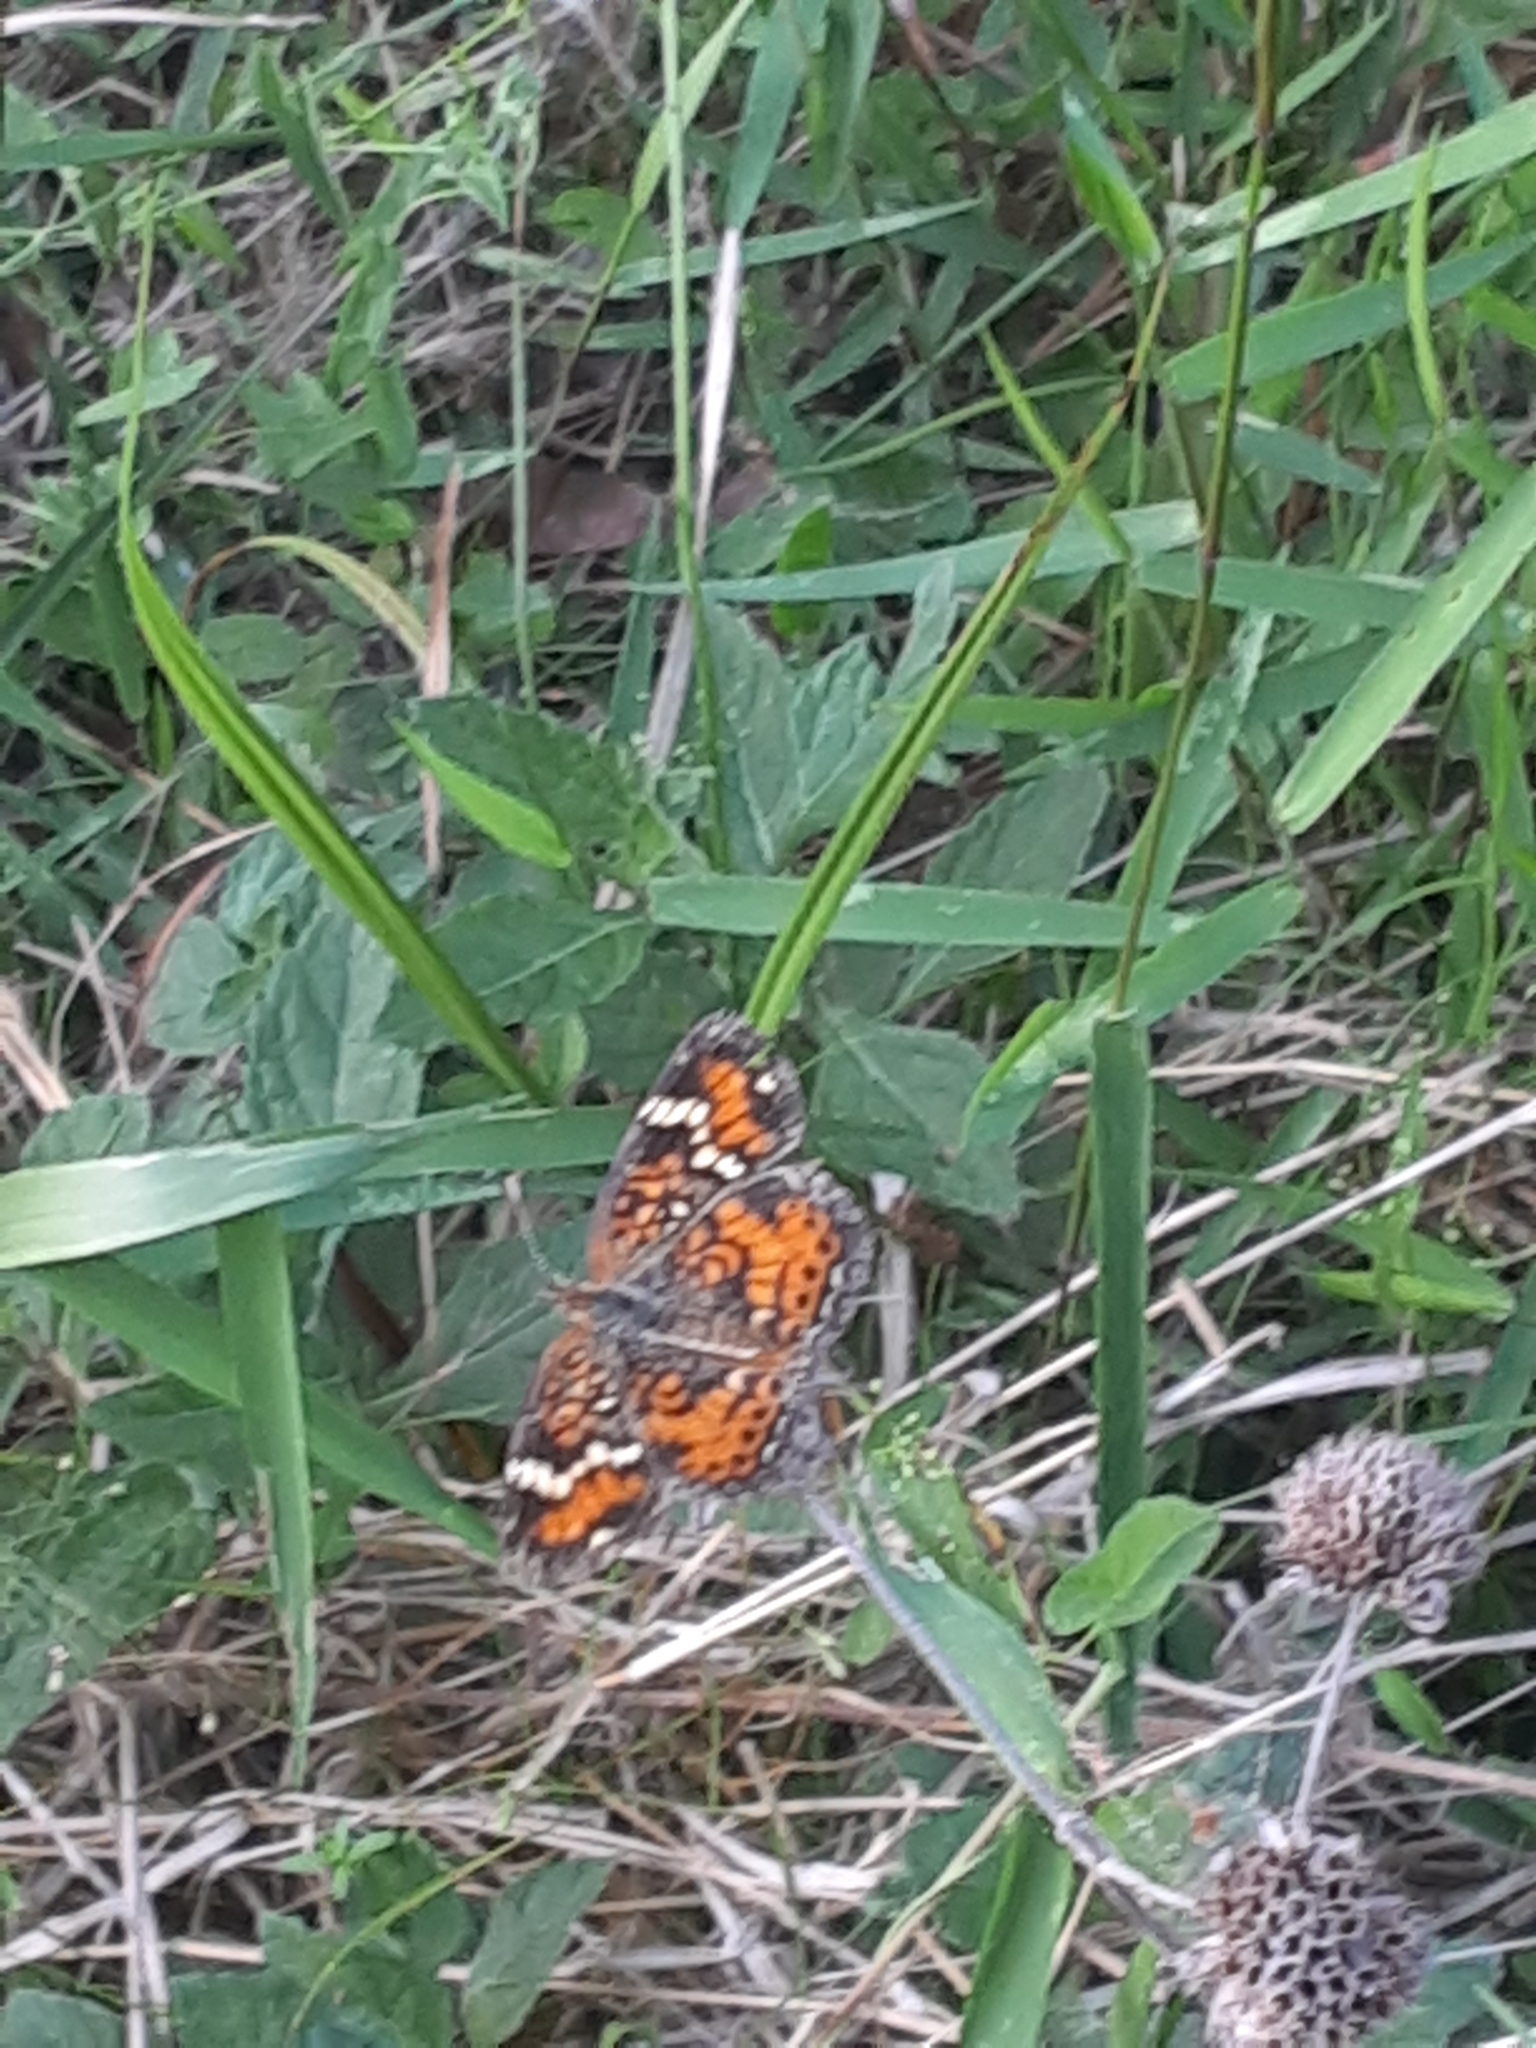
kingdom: Animalia
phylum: Arthropoda
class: Insecta
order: Lepidoptera
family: Nymphalidae
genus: Phyciodes
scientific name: Phyciodes phaon
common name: Phaon crescent
